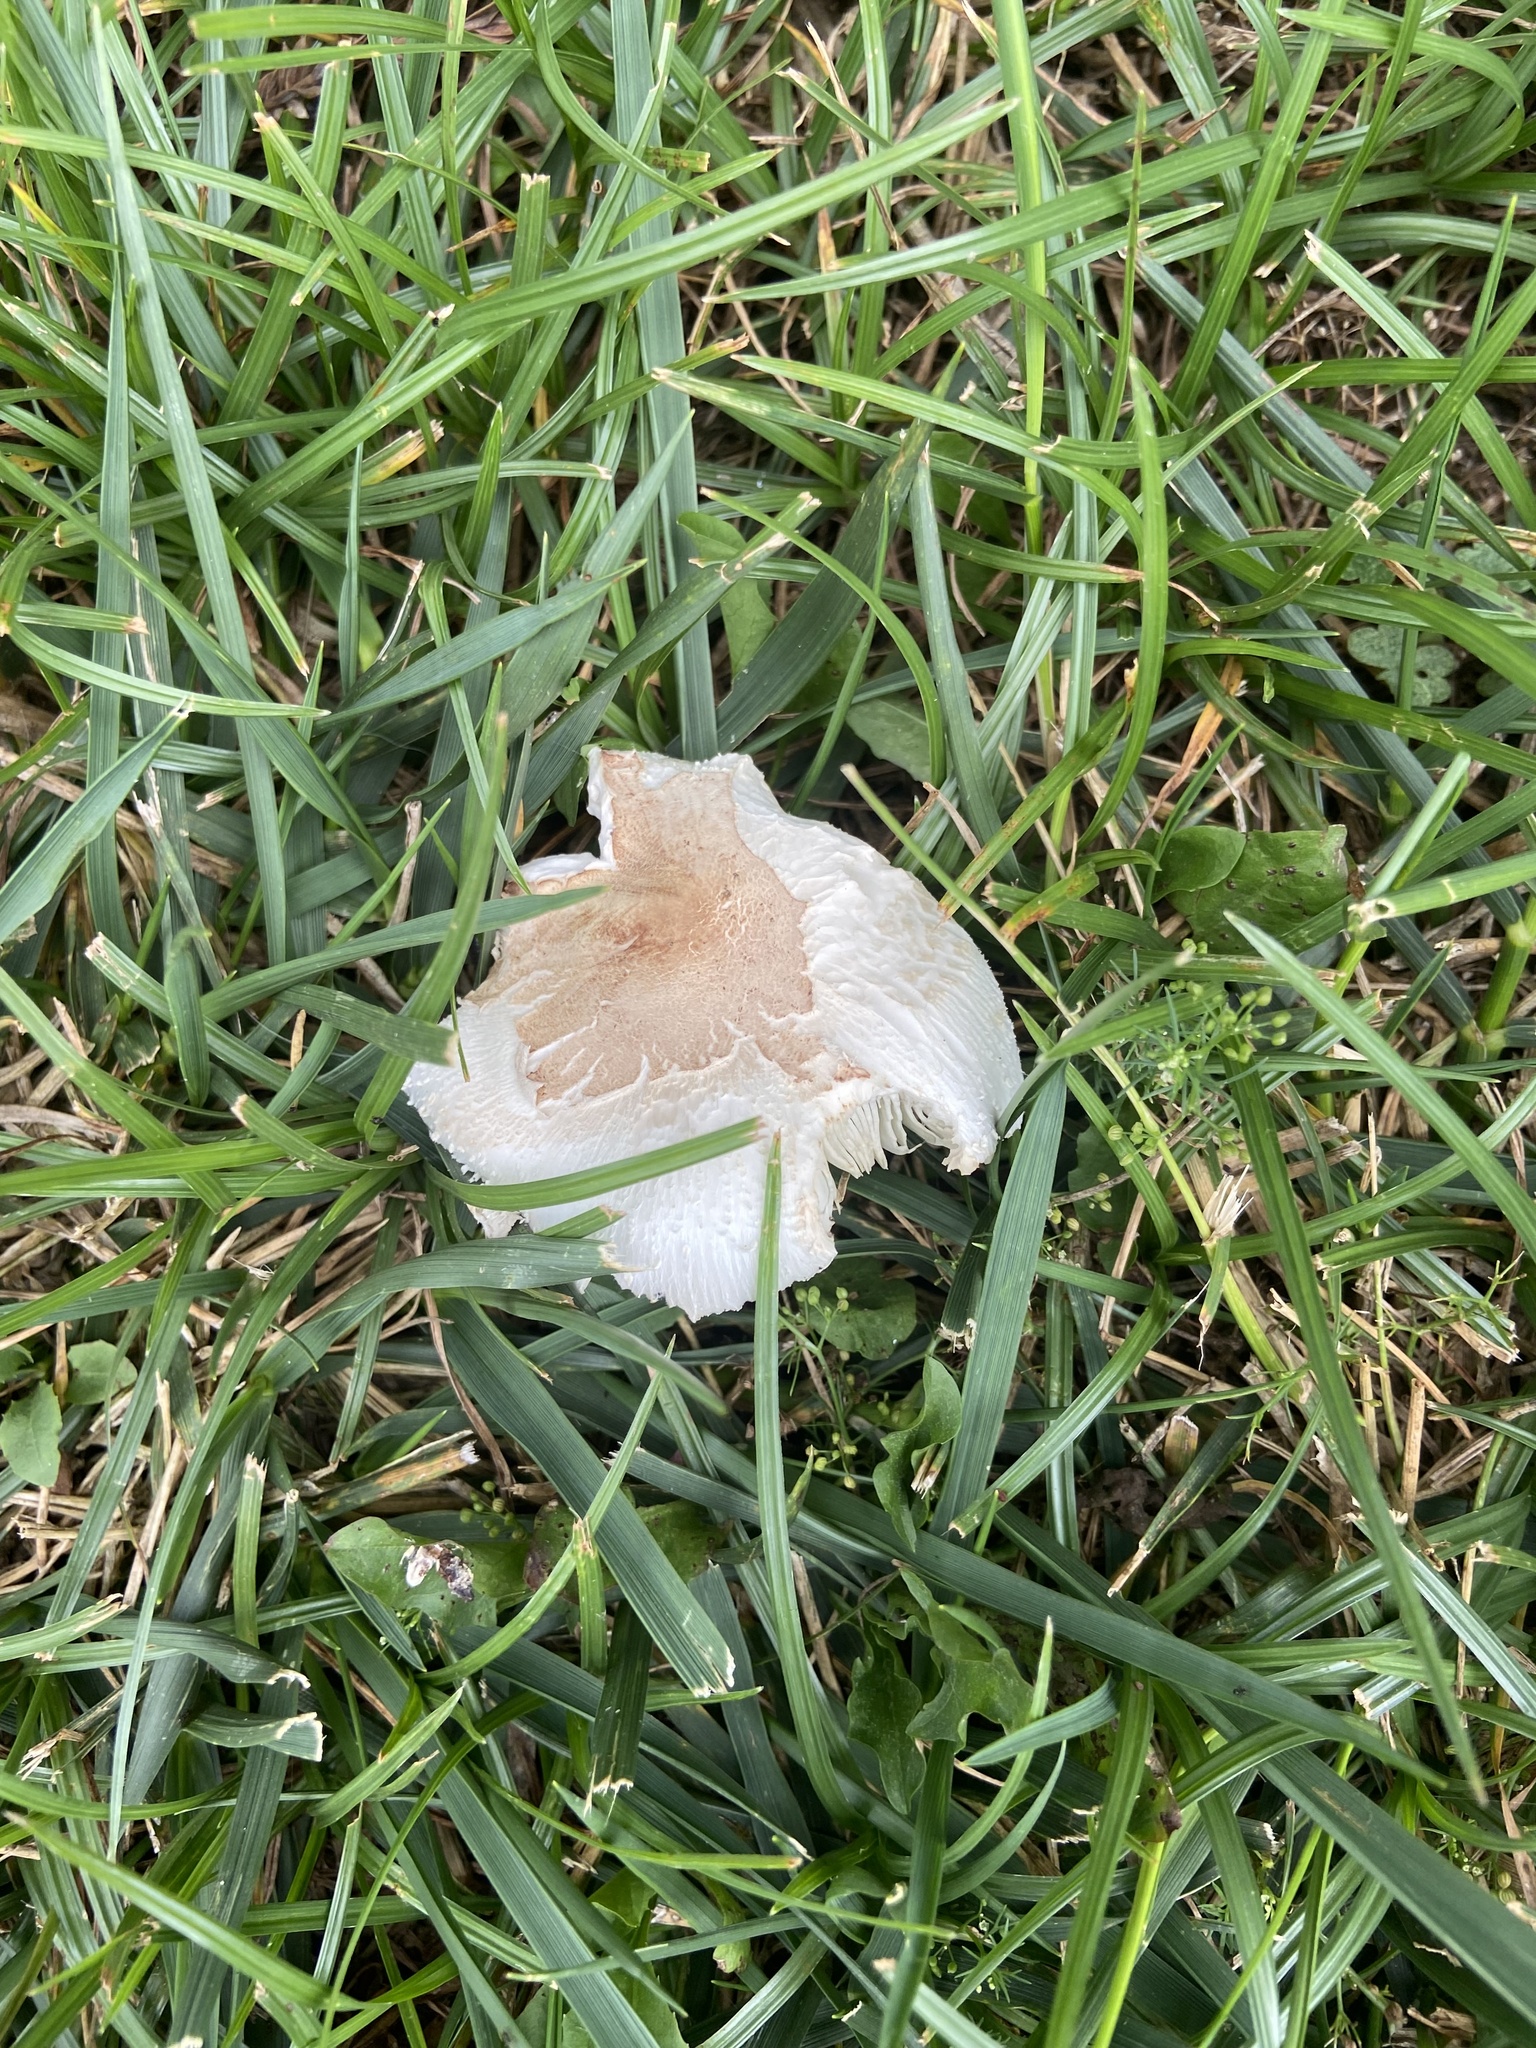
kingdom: Fungi
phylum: Basidiomycota
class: Agaricomycetes
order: Agaricales
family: Agaricaceae
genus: Chlorophyllum
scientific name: Chlorophyllum molybdites
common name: False parasol
